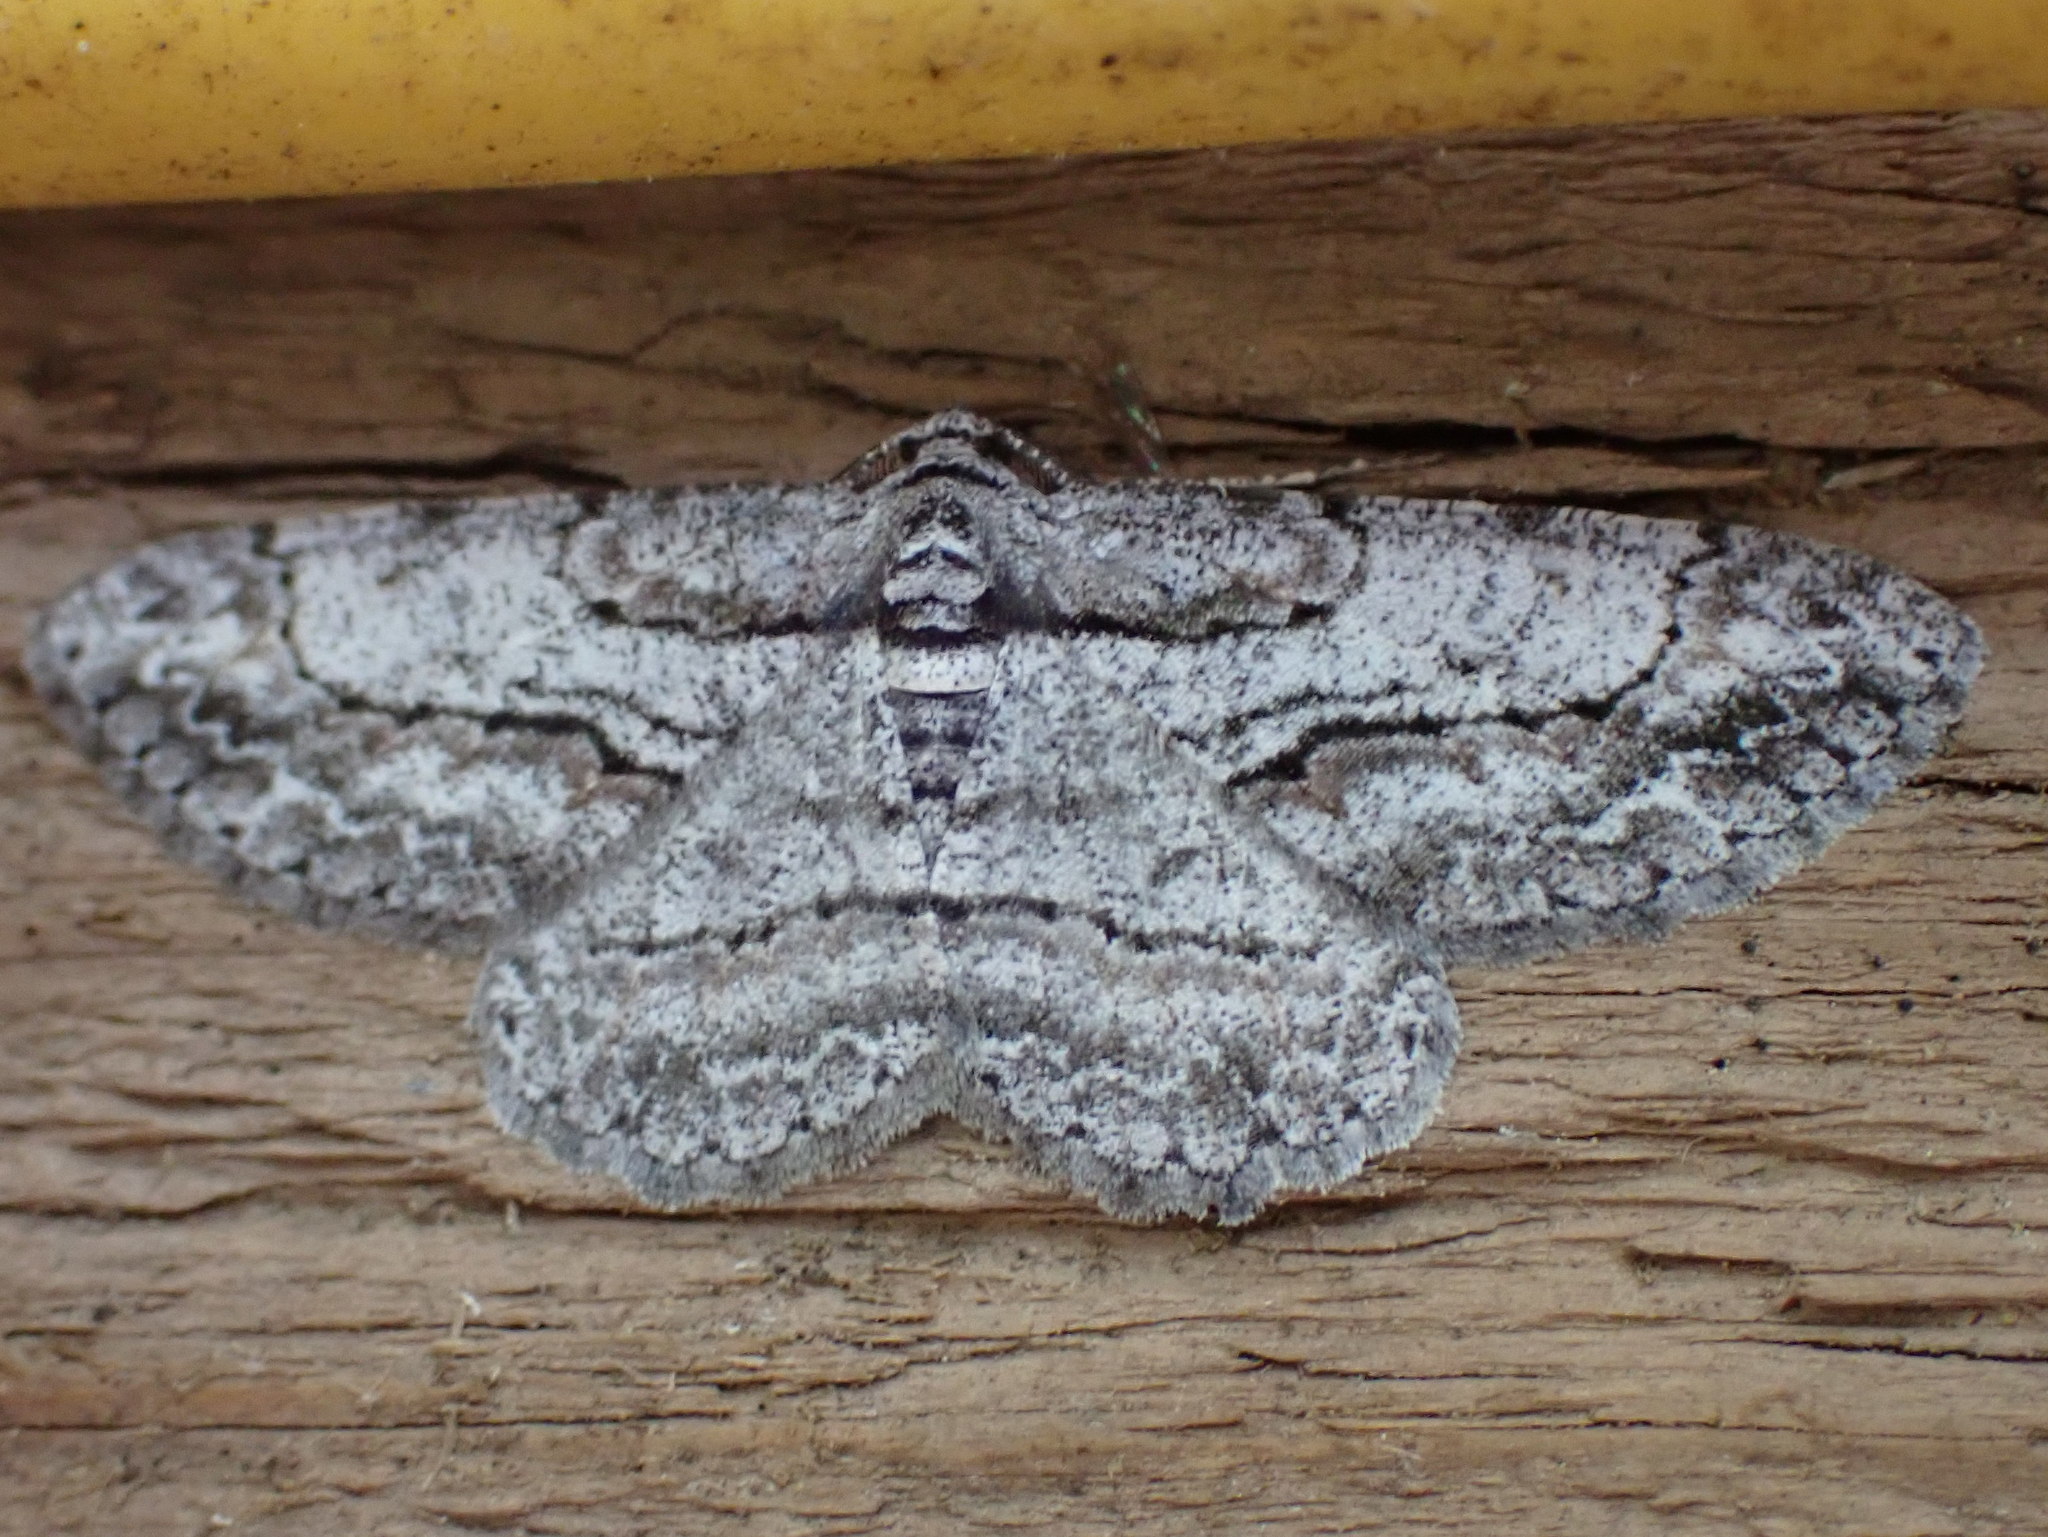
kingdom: Animalia
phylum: Arthropoda
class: Insecta
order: Lepidoptera
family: Geometridae
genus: Anavitrinella
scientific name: Anavitrinella pampinaria
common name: Common gray
